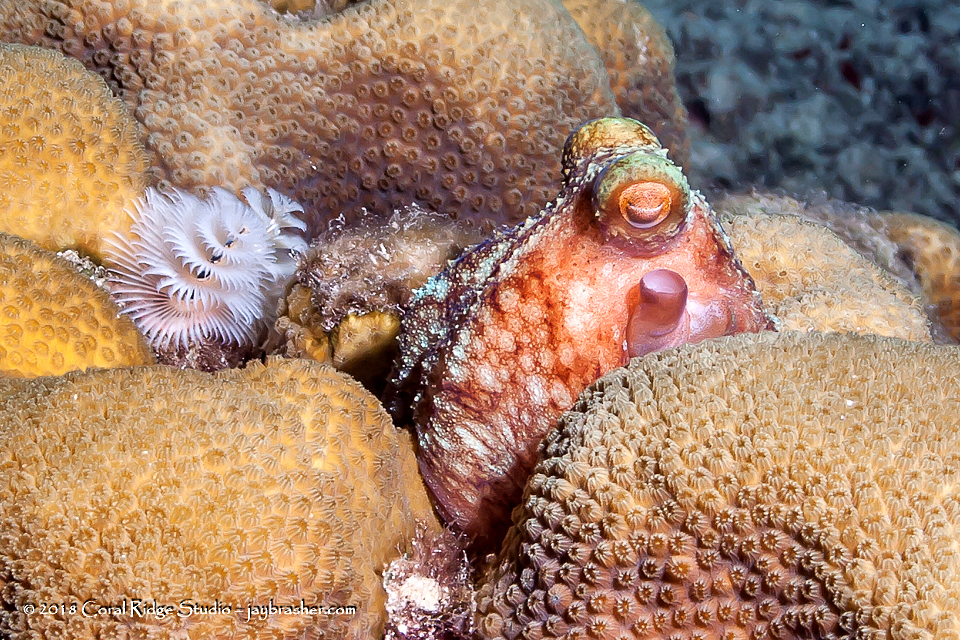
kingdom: Animalia
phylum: Mollusca
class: Cephalopoda
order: Octopoda
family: Octopodidae
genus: Octopus
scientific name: Octopus briareus
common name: Caribbean reef octopus
